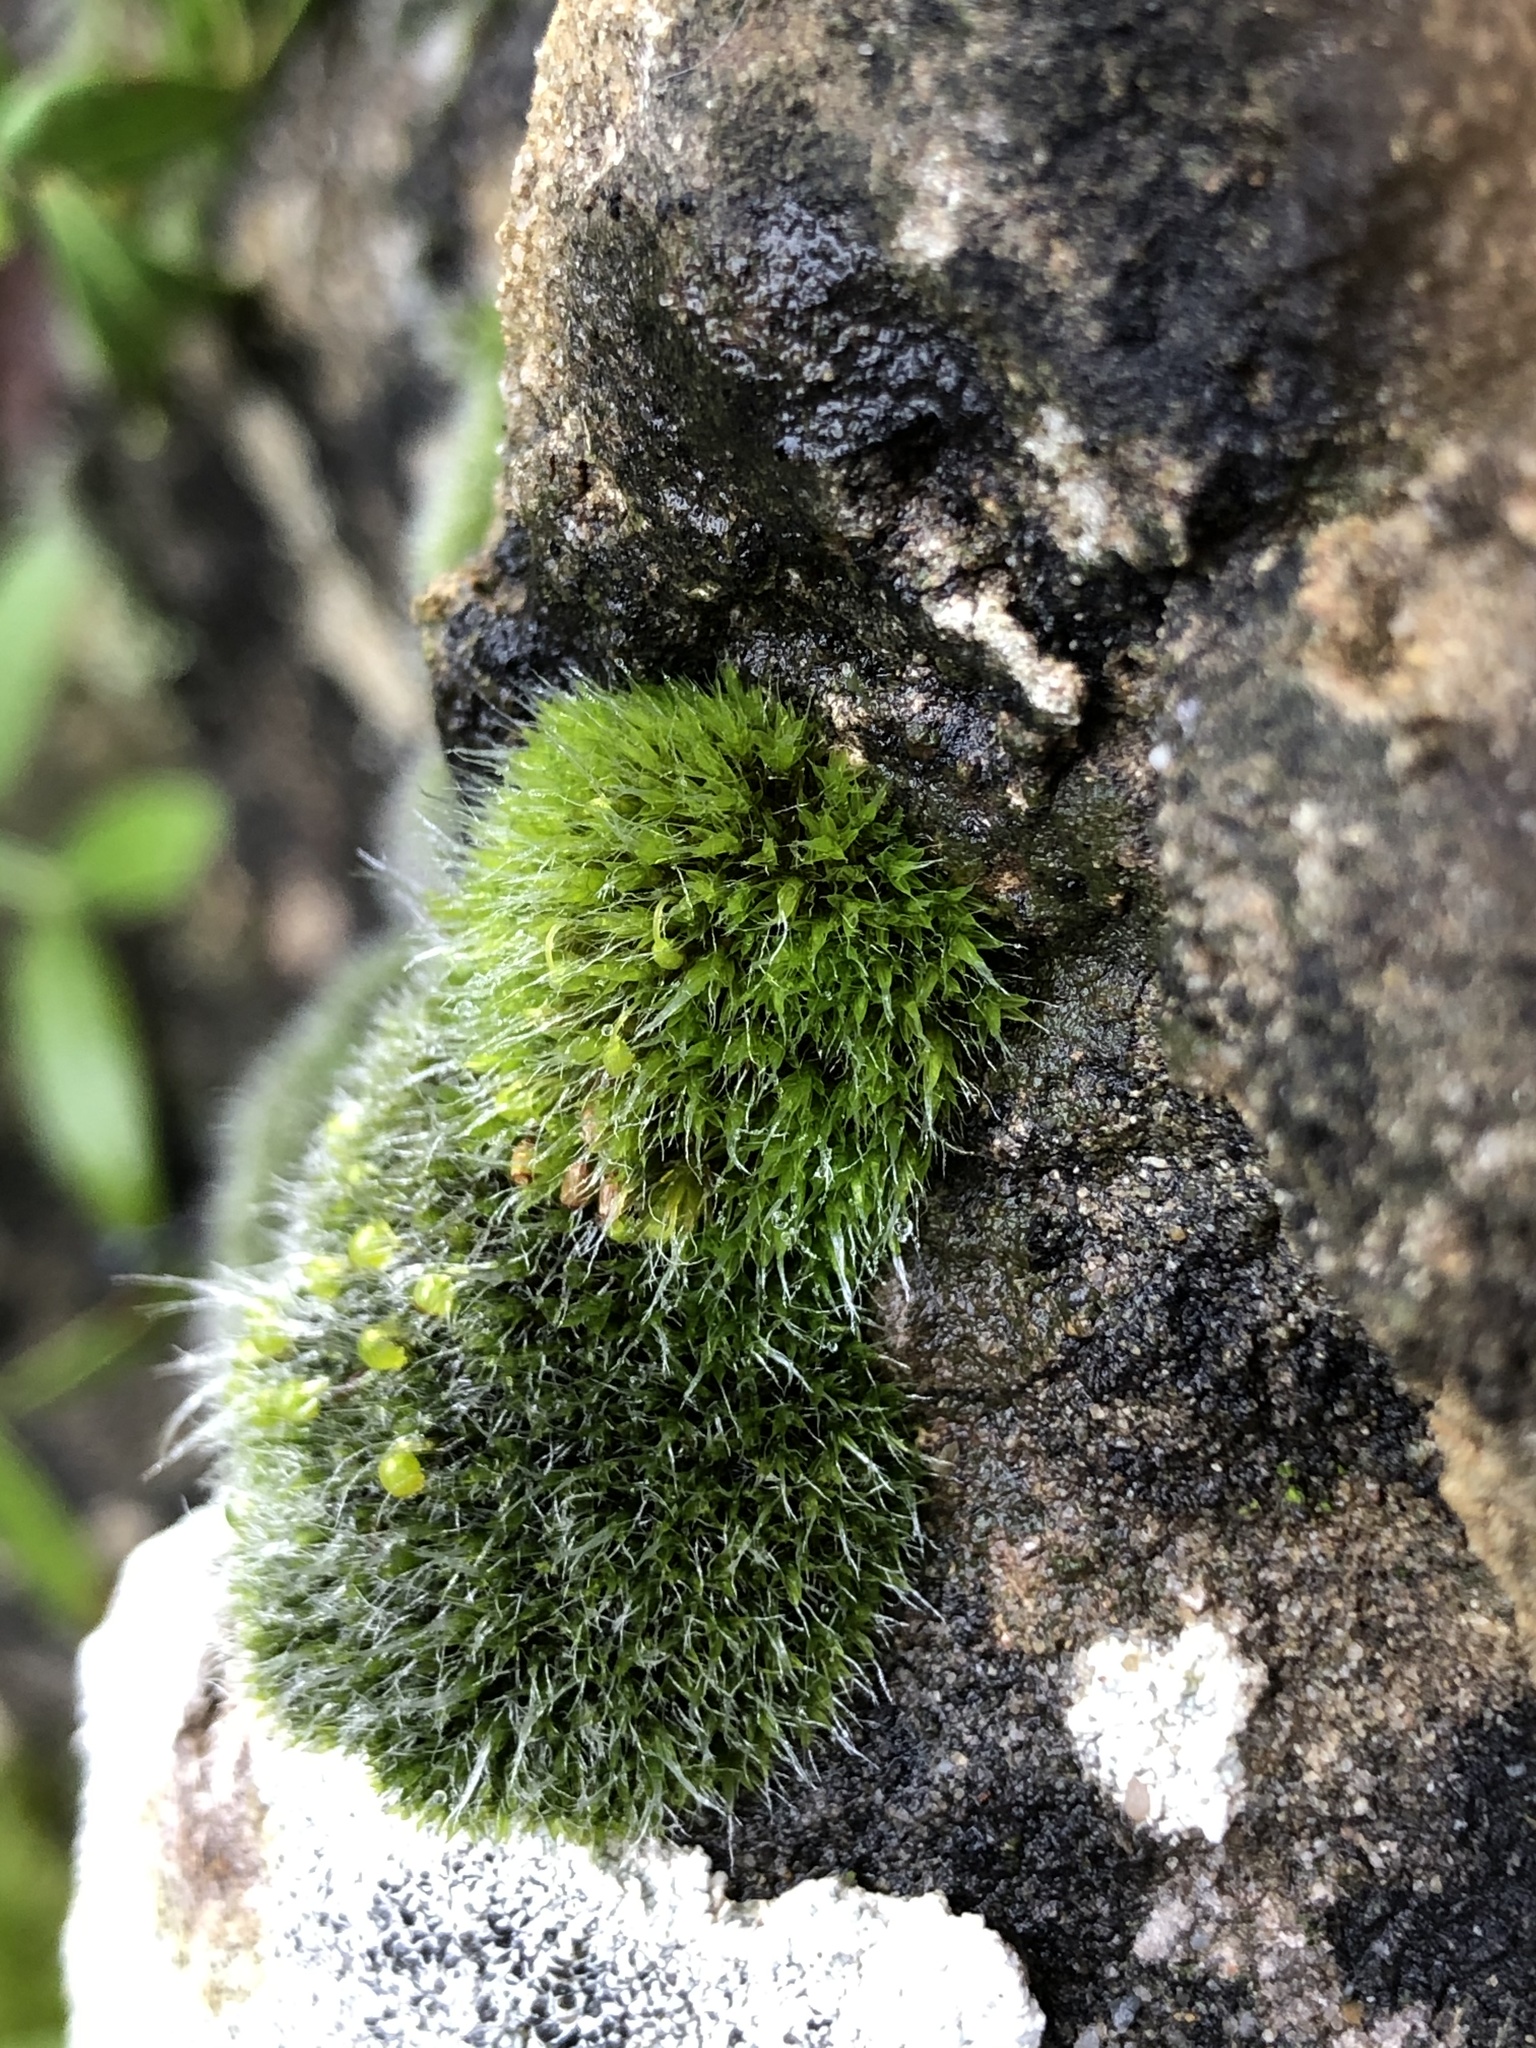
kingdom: Plantae
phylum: Bryophyta
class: Bryopsida
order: Grimmiales
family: Grimmiaceae
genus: Grimmia
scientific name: Grimmia pulvinata
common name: Grey-cushioned grimmia
